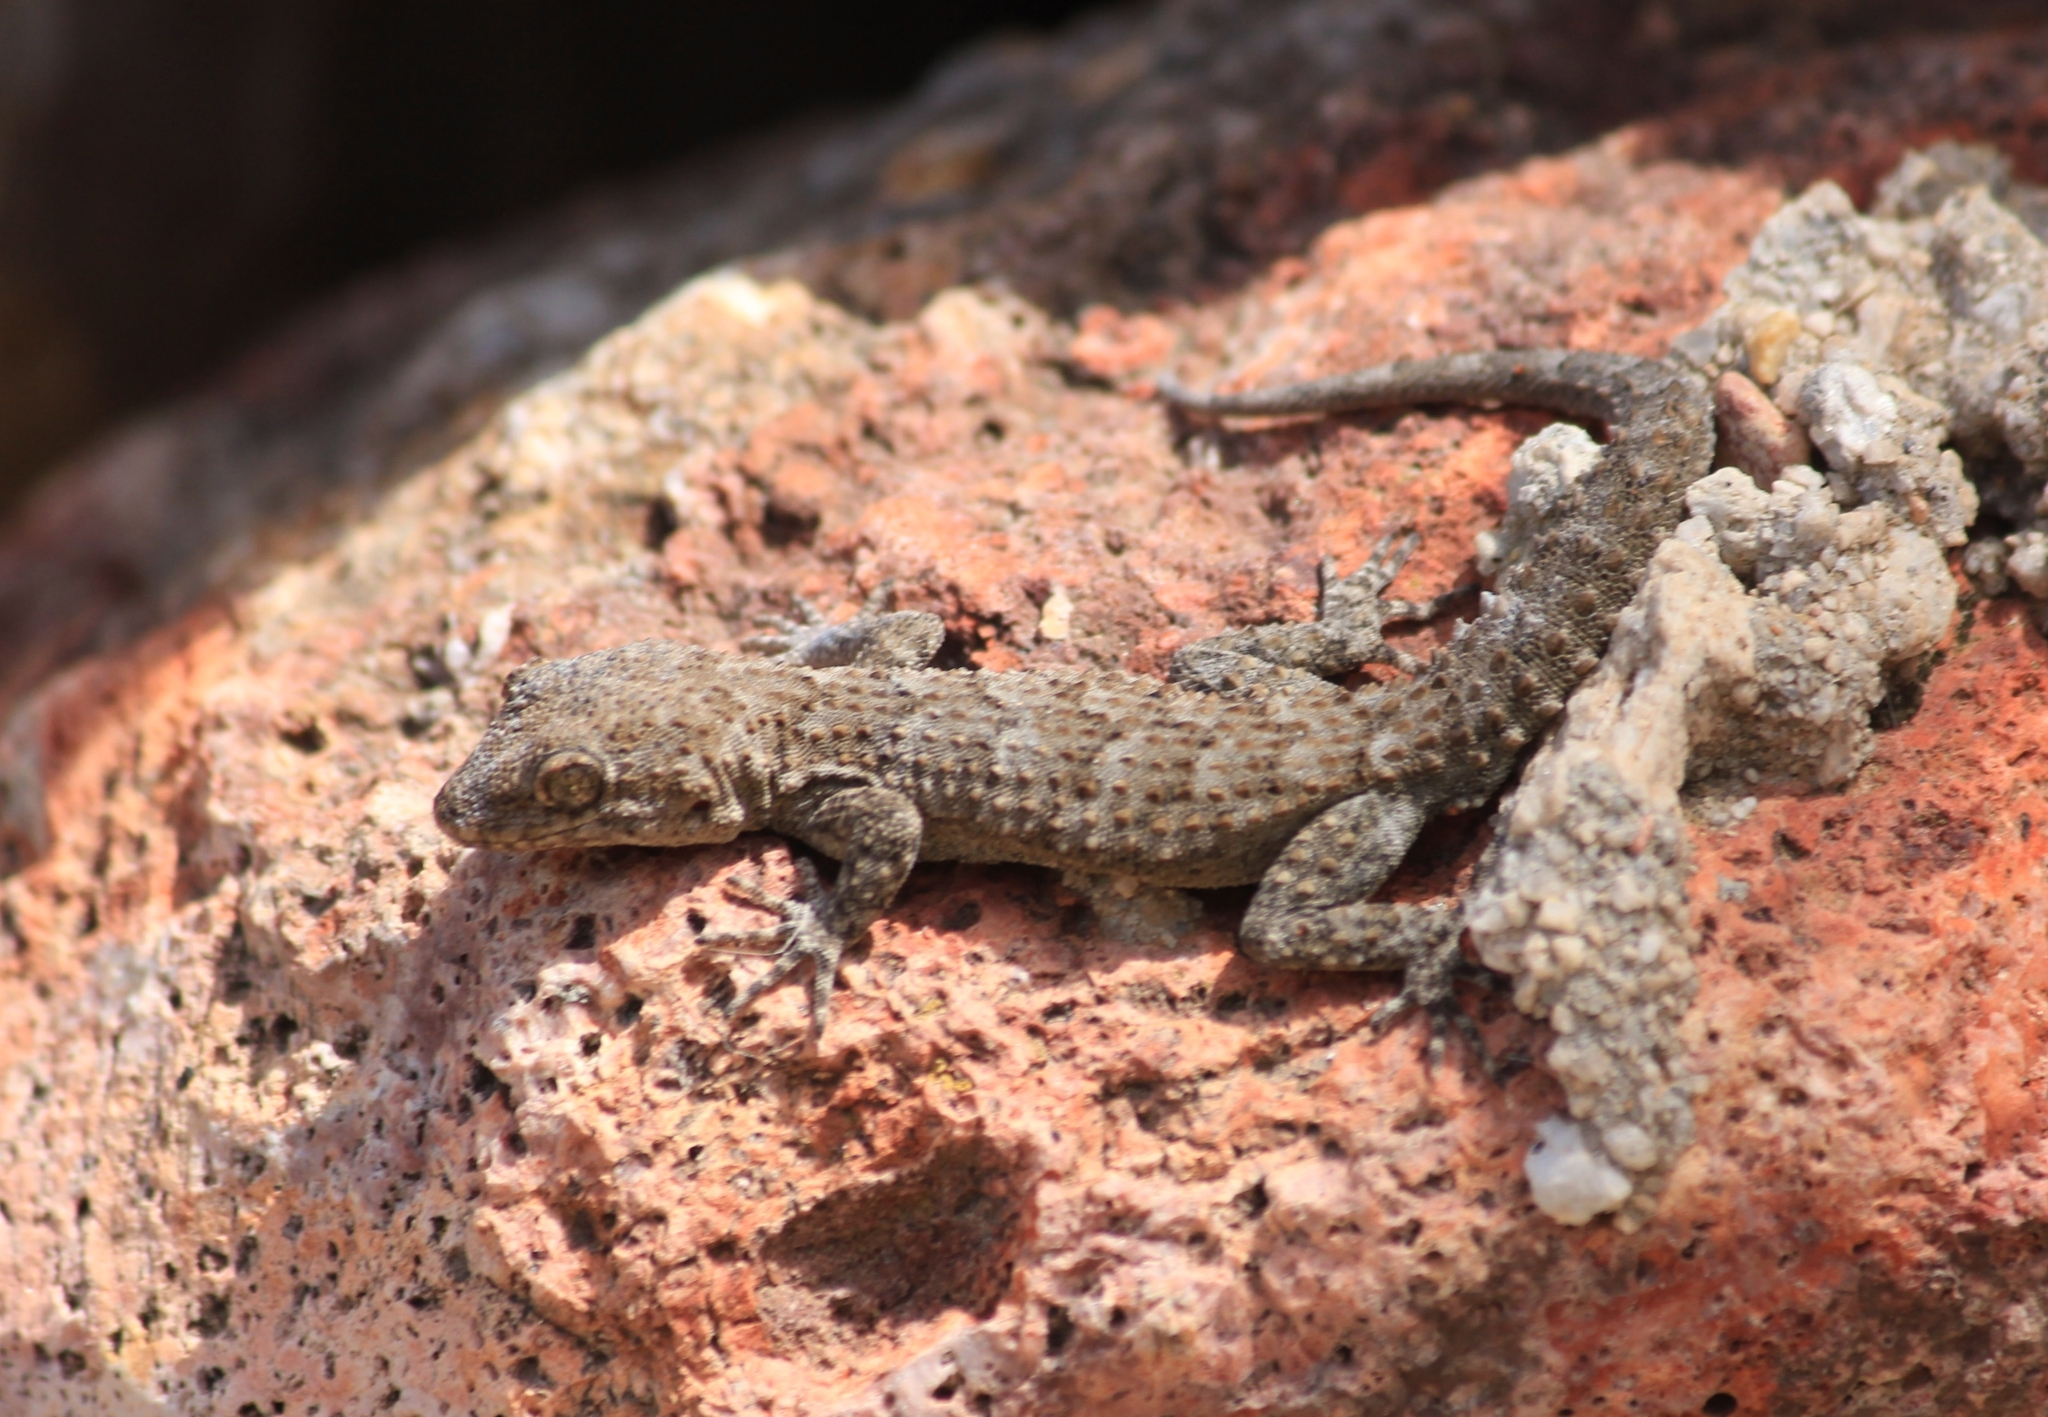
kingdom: Animalia
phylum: Chordata
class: Squamata
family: Gekkonidae
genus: Mediodactylus
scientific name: Mediodactylus kotschyi
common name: Kotschy's gecko
